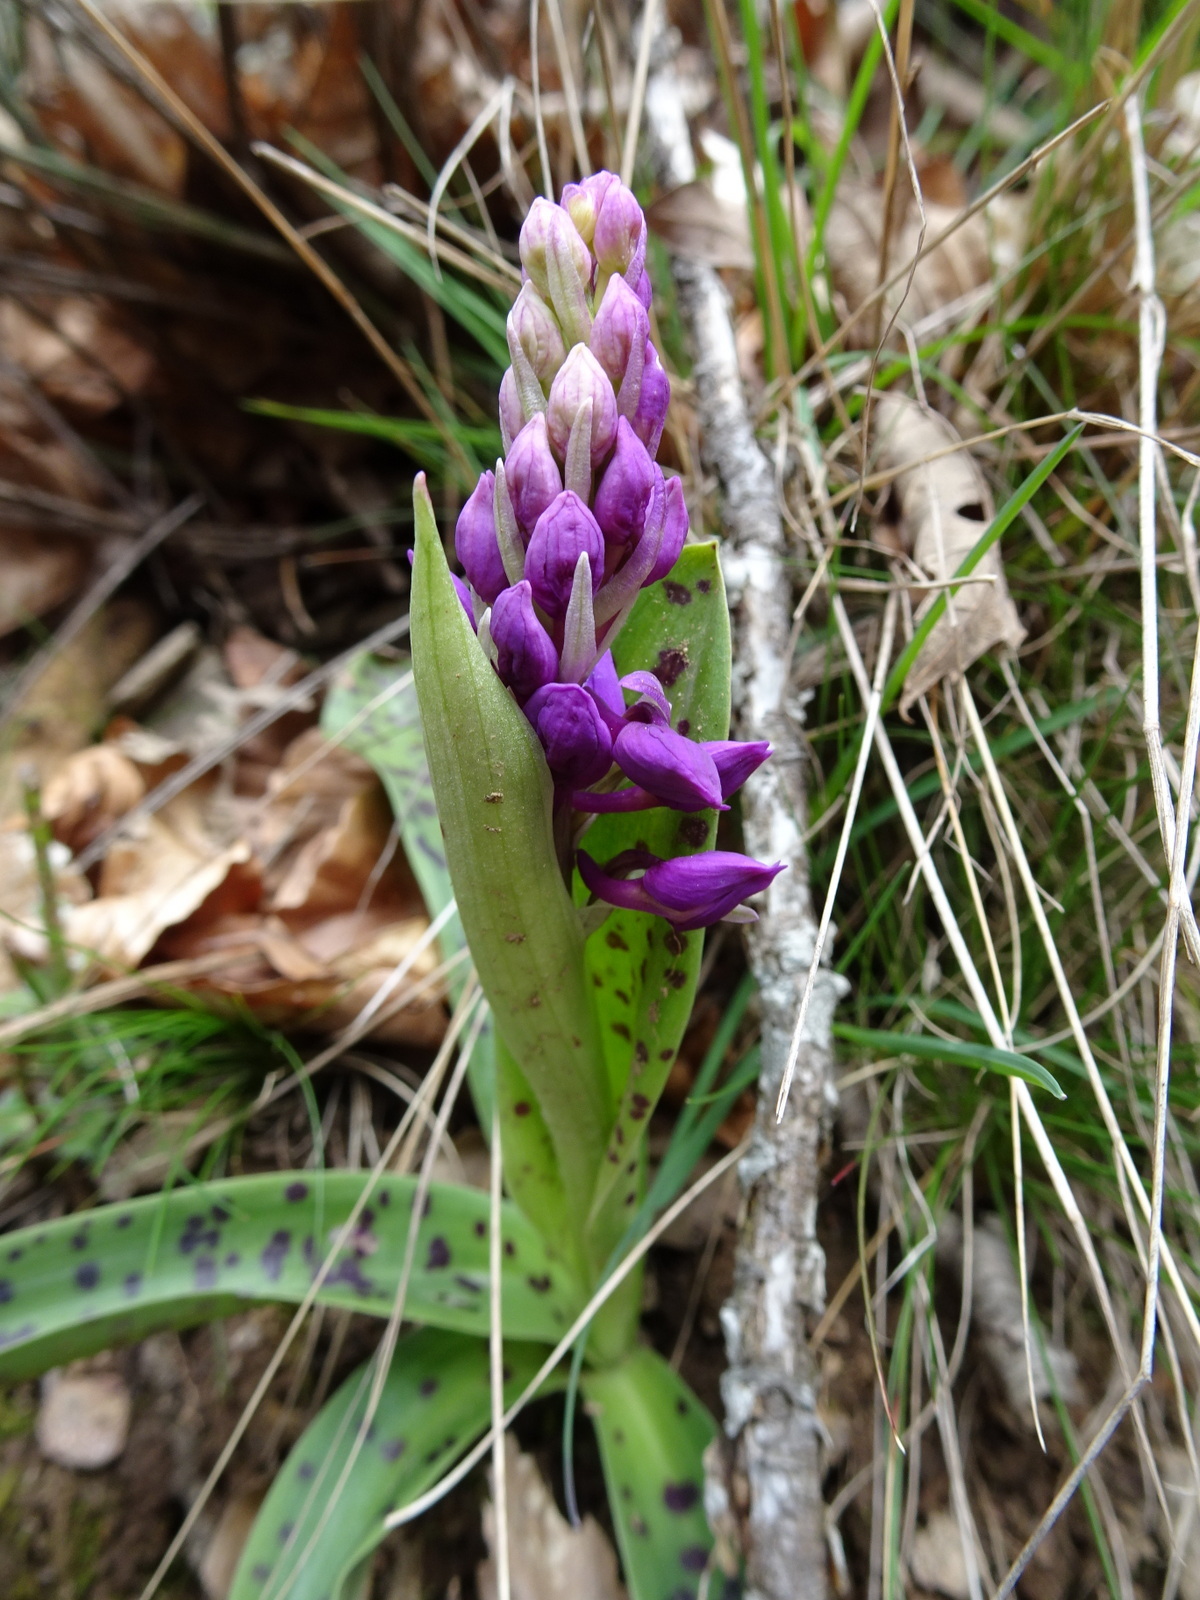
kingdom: Plantae
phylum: Tracheophyta
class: Liliopsida
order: Asparagales
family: Orchidaceae
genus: Orchis
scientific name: Orchis mascula
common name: Early-purple orchid
